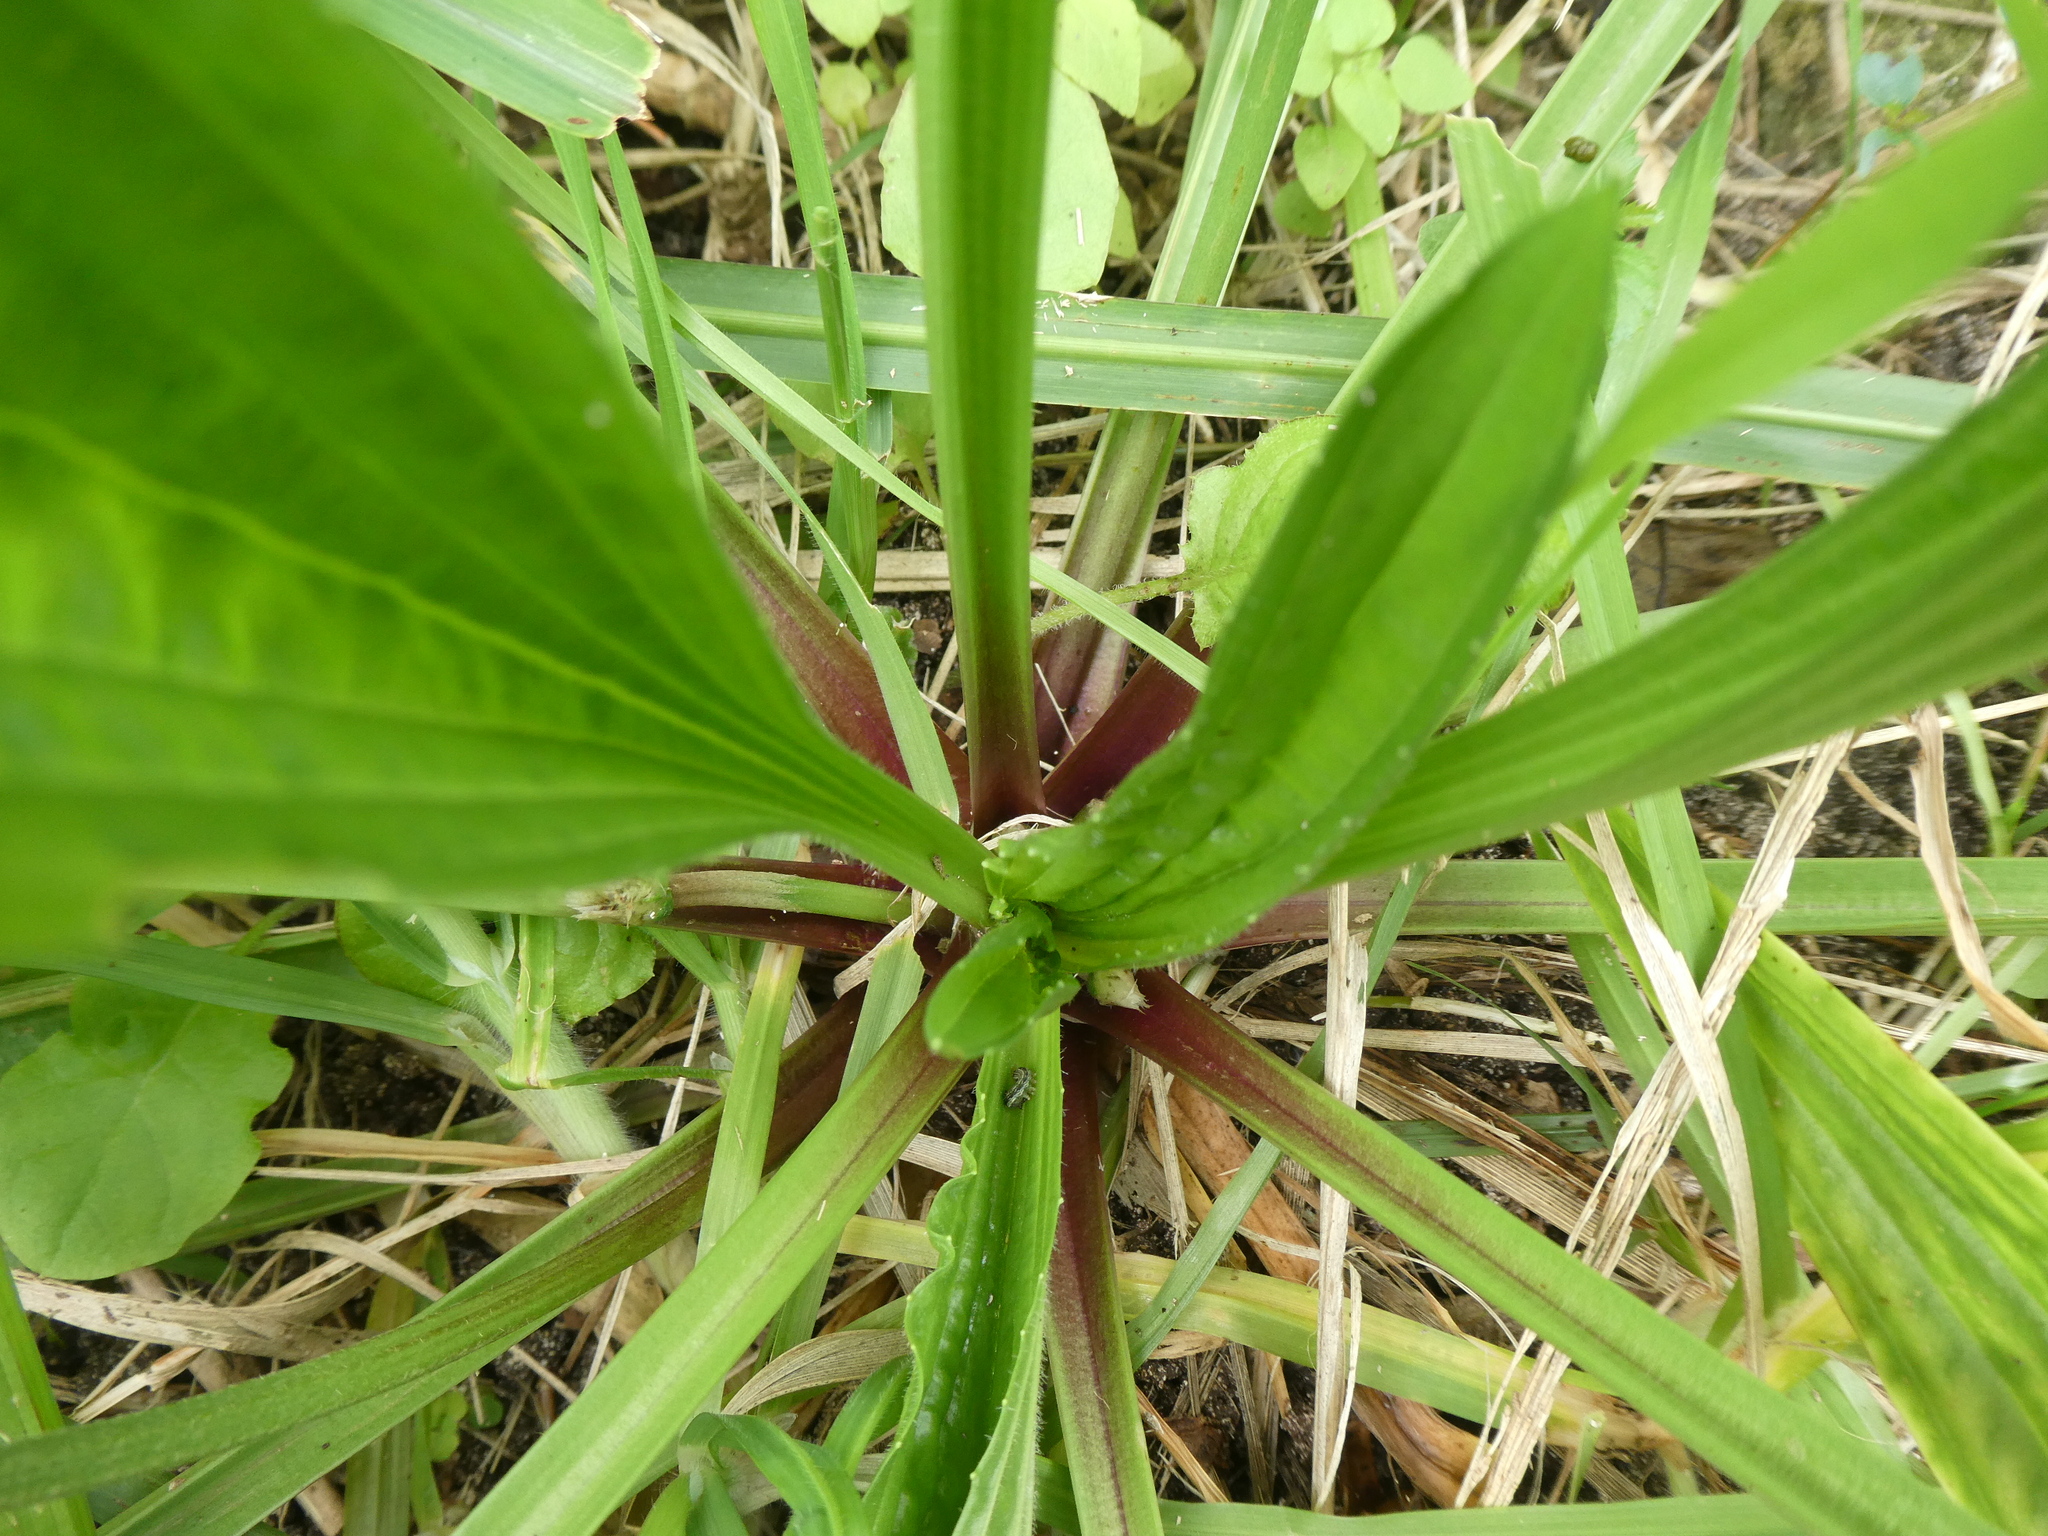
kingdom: Plantae
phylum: Tracheophyta
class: Magnoliopsida
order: Lamiales
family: Plantaginaceae
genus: Plantago
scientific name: Plantago lanceolata
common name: Ribwort plantain
